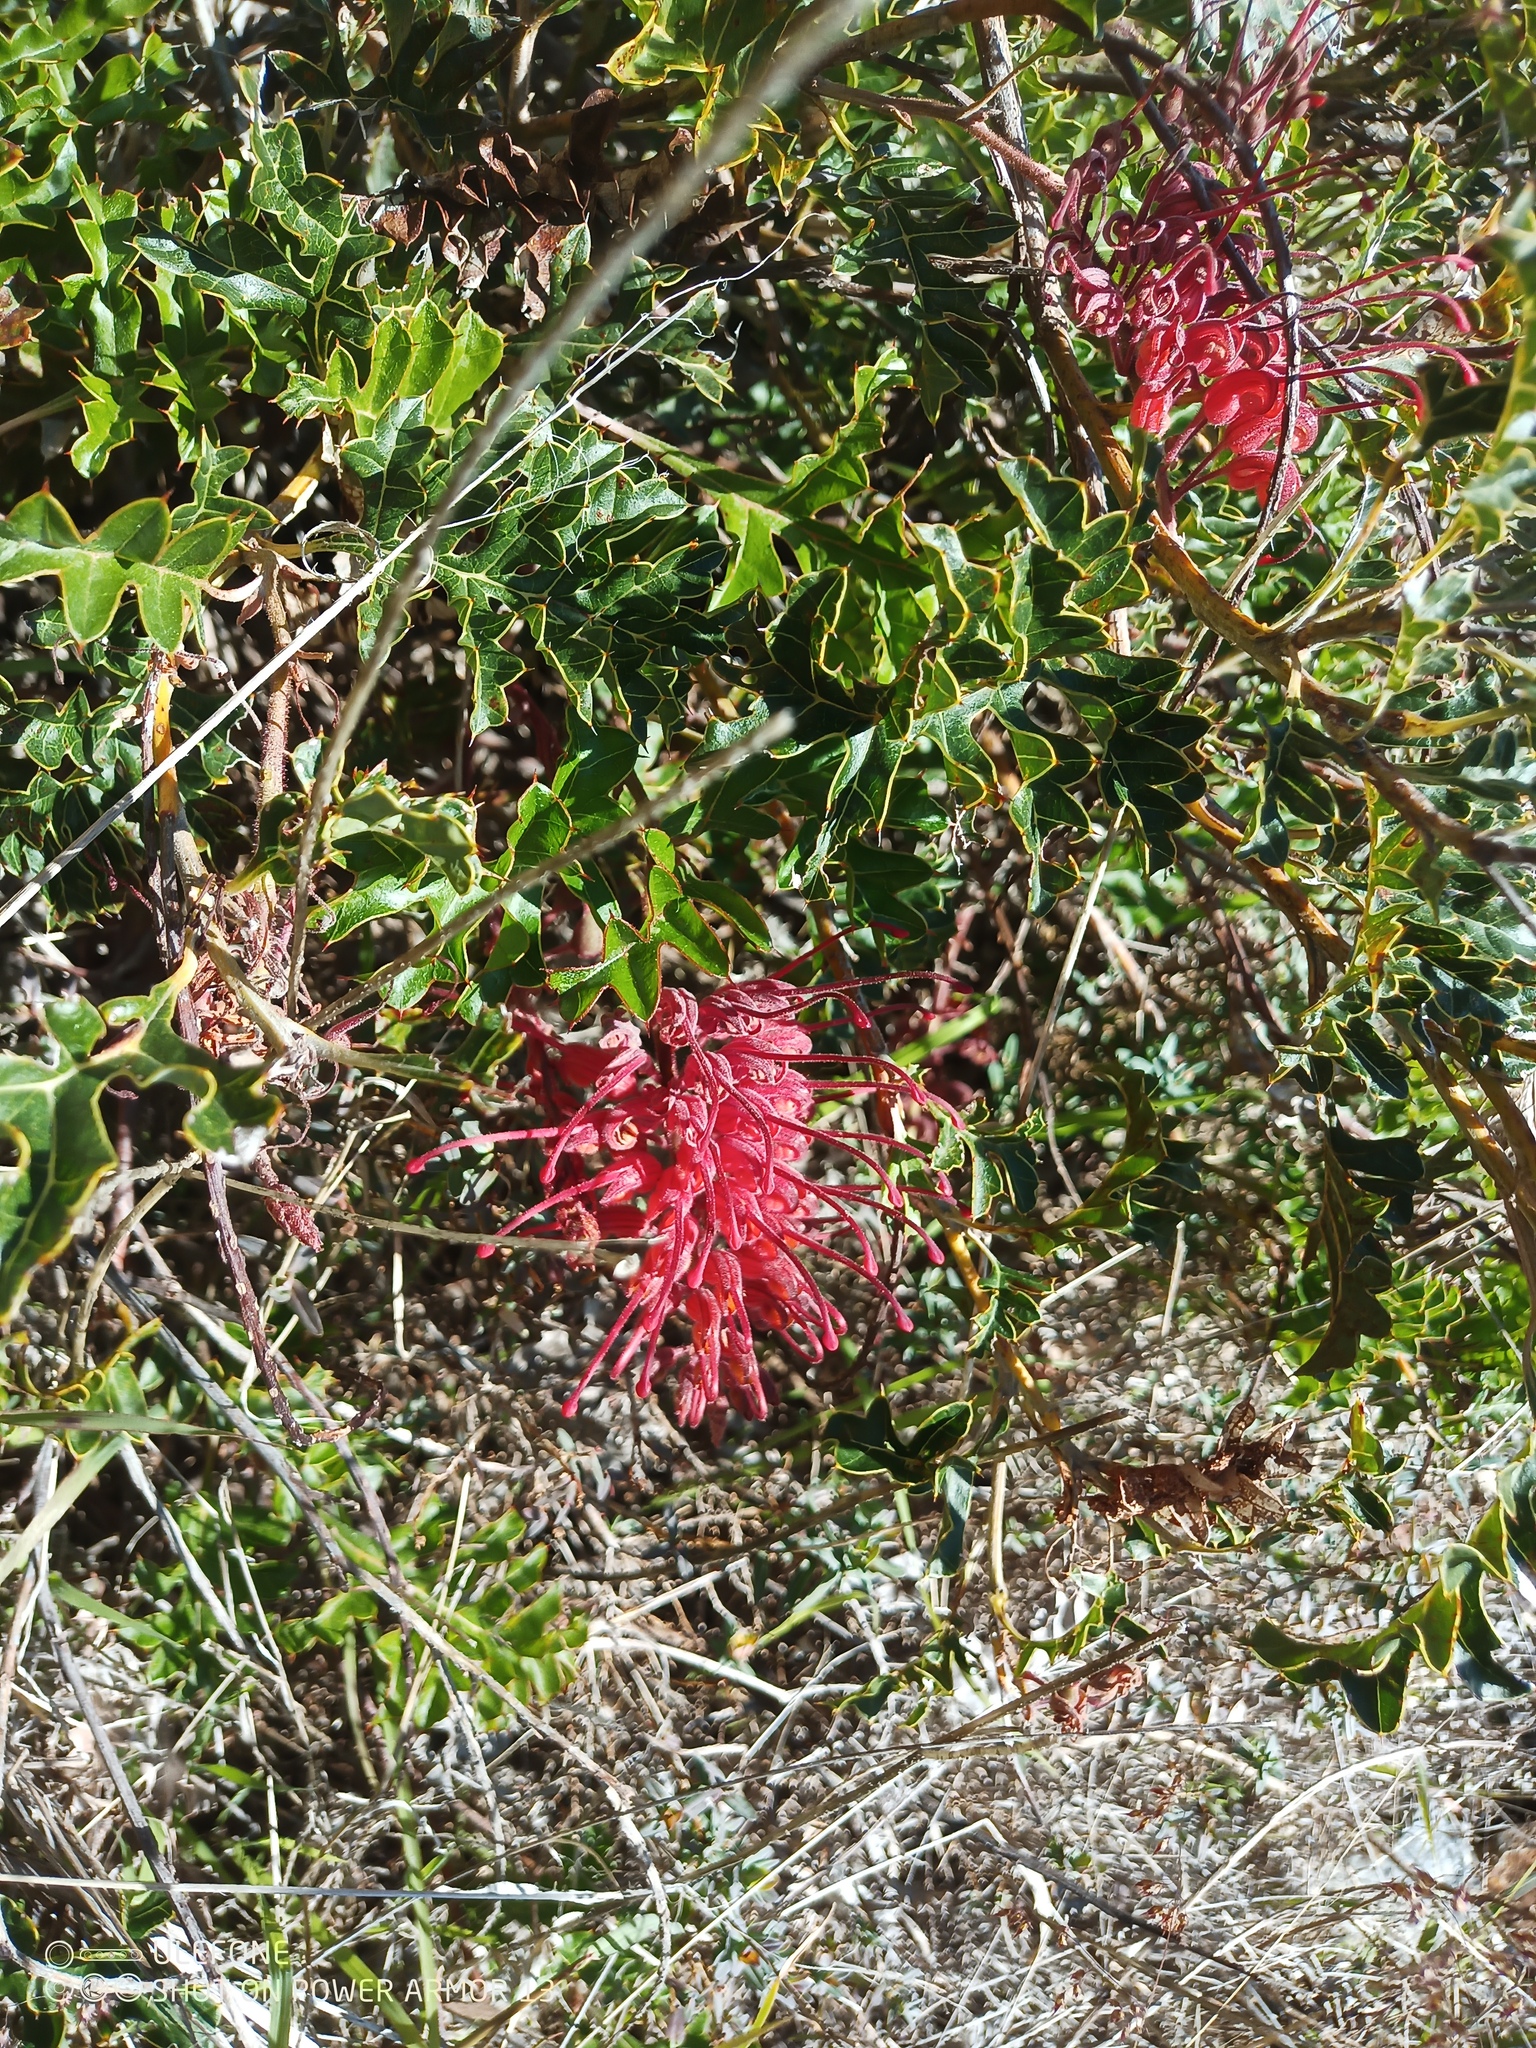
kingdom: Plantae
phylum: Tracheophyta
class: Magnoliopsida
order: Proteales
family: Proteaceae
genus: Grevillea
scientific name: Grevillea bipinnatifida
